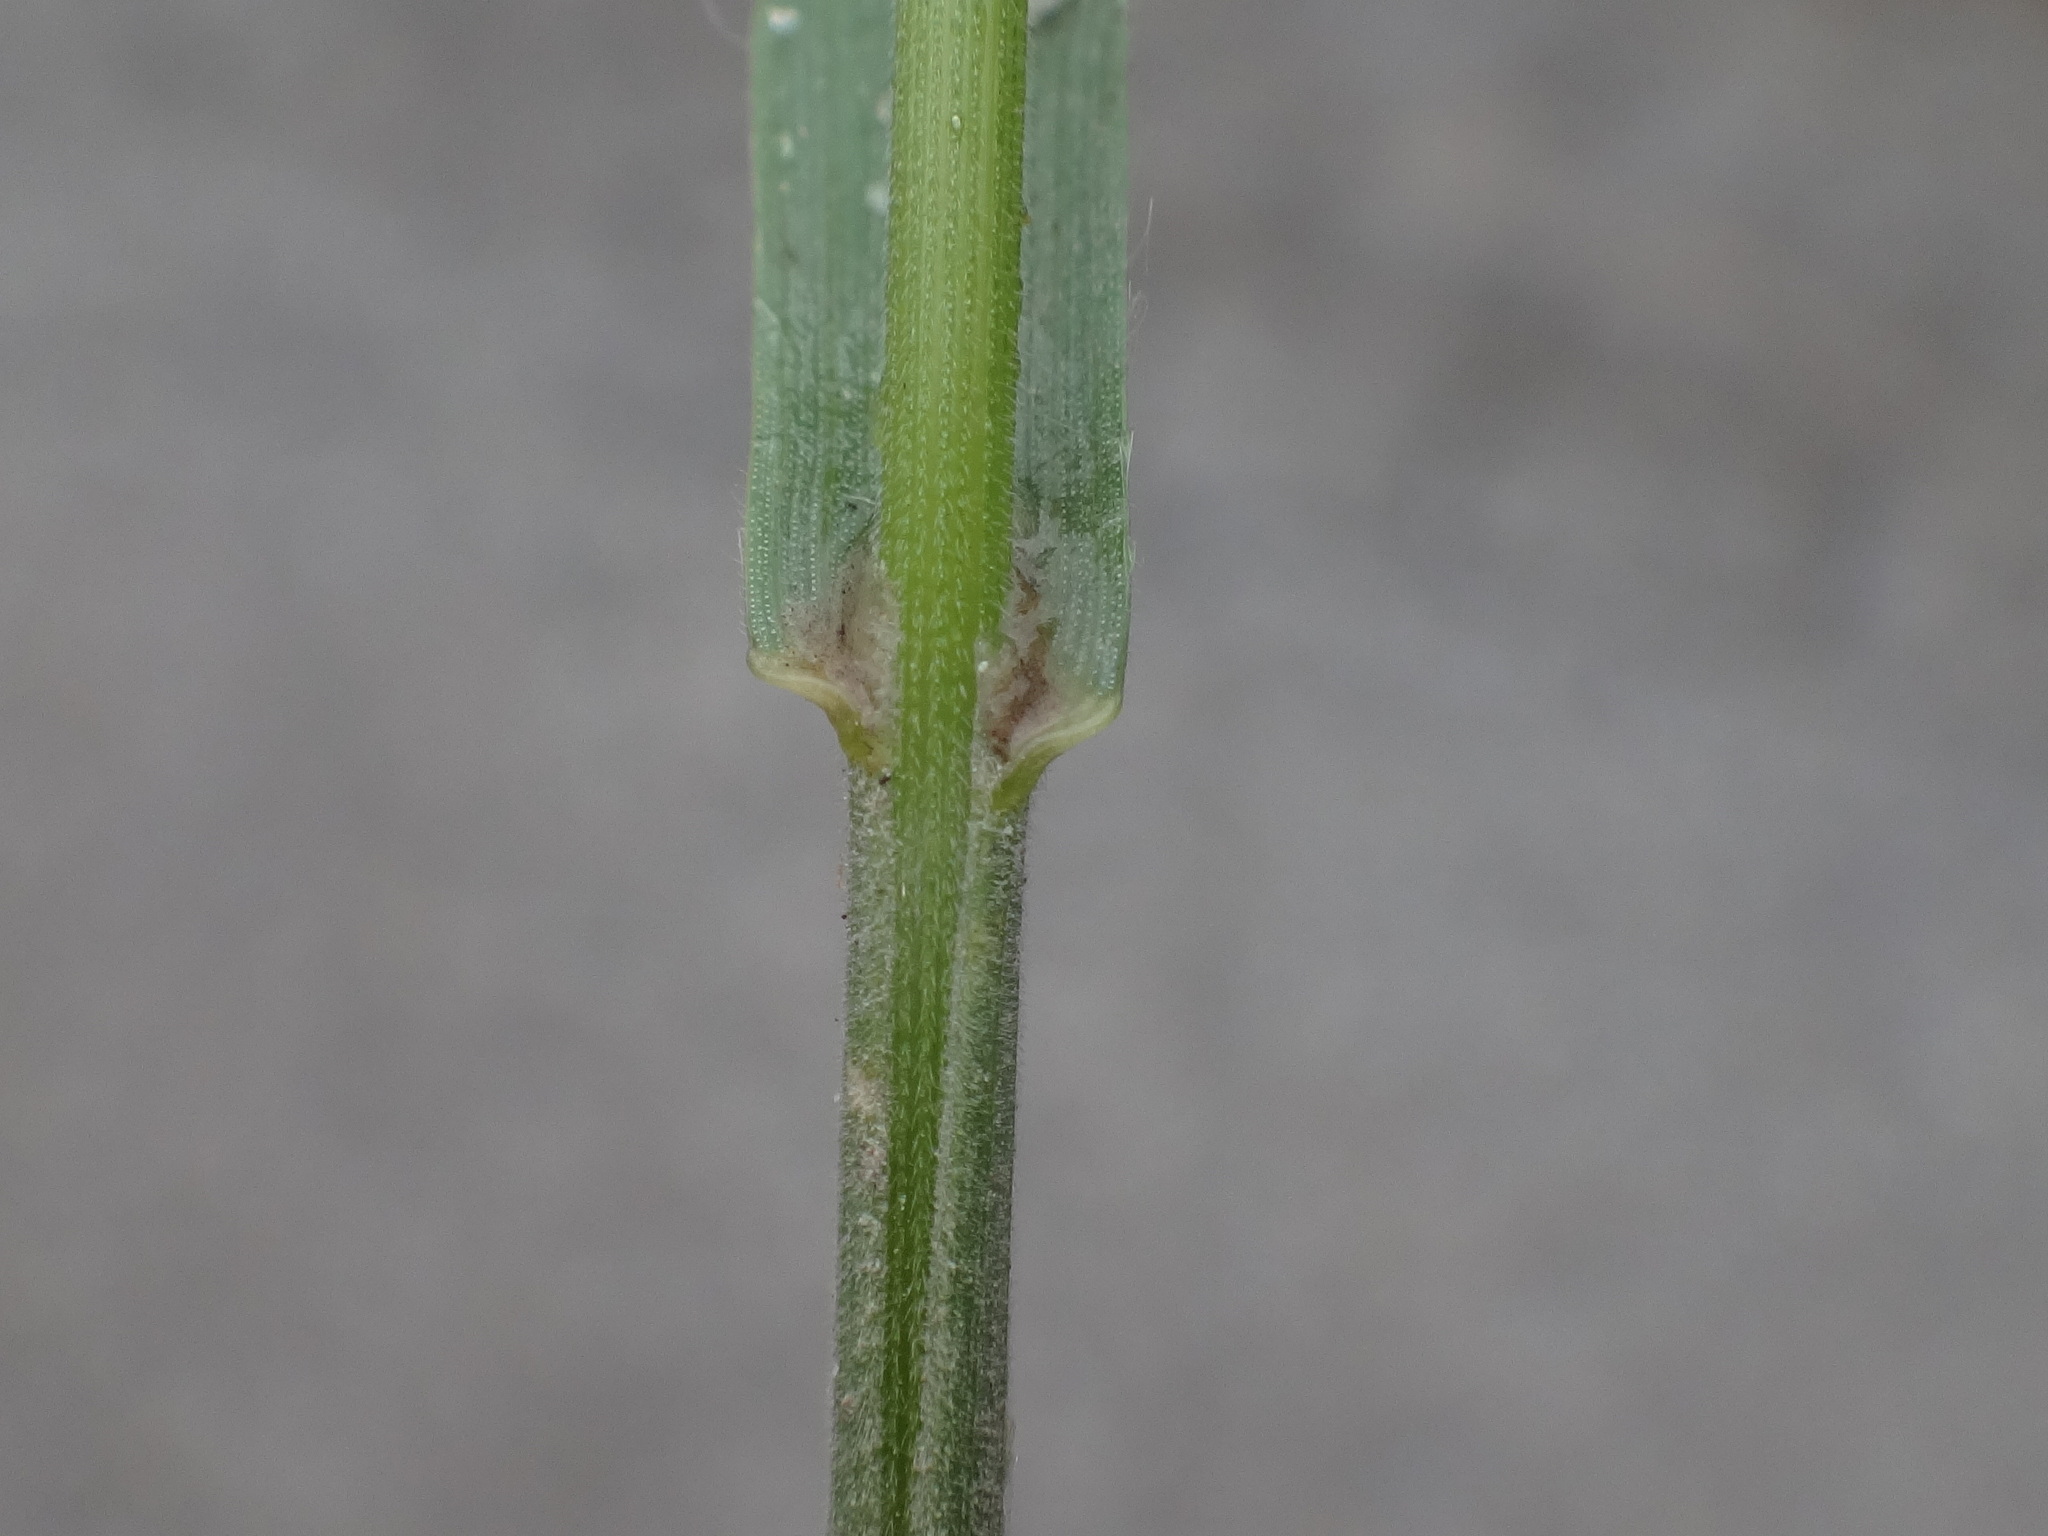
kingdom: Plantae
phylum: Tracheophyta
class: Liliopsida
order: Poales
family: Poaceae
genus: Bromus
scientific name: Bromus hordeaceus
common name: Soft brome
